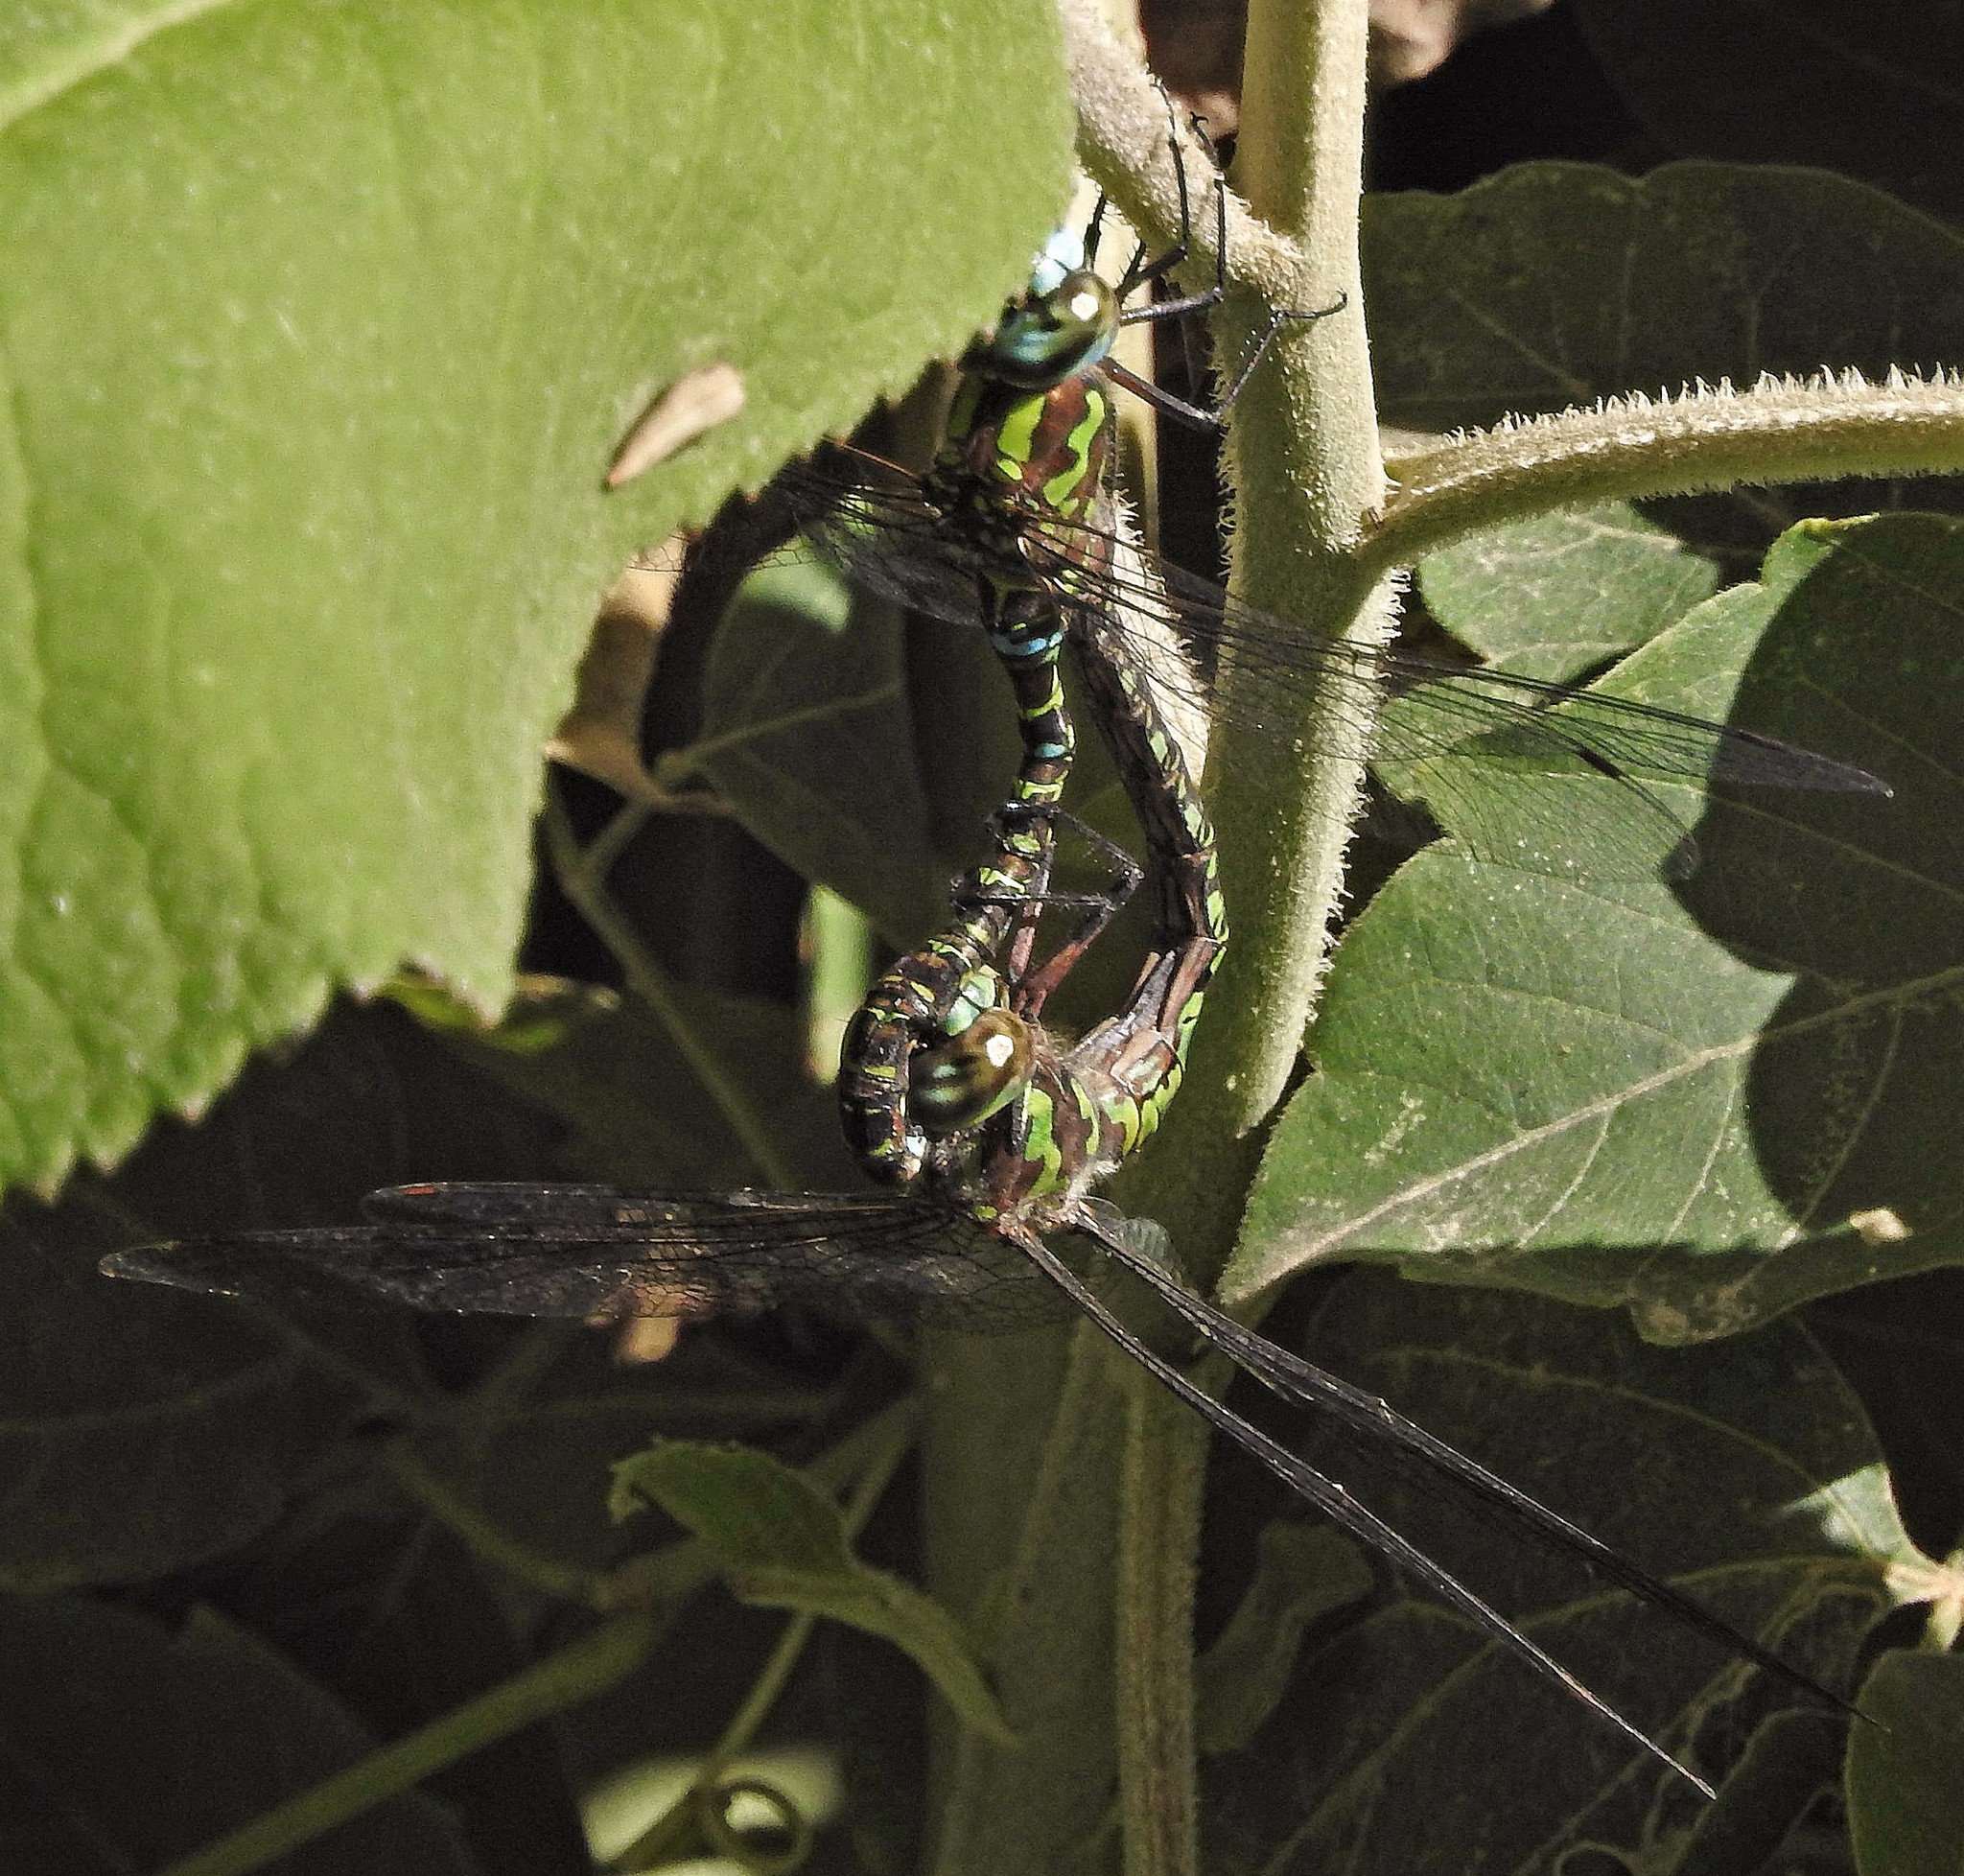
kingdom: Animalia
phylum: Arthropoda
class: Insecta
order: Odonata
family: Aeshnidae
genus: Rhionaeschna
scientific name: Rhionaeschna planaltica
